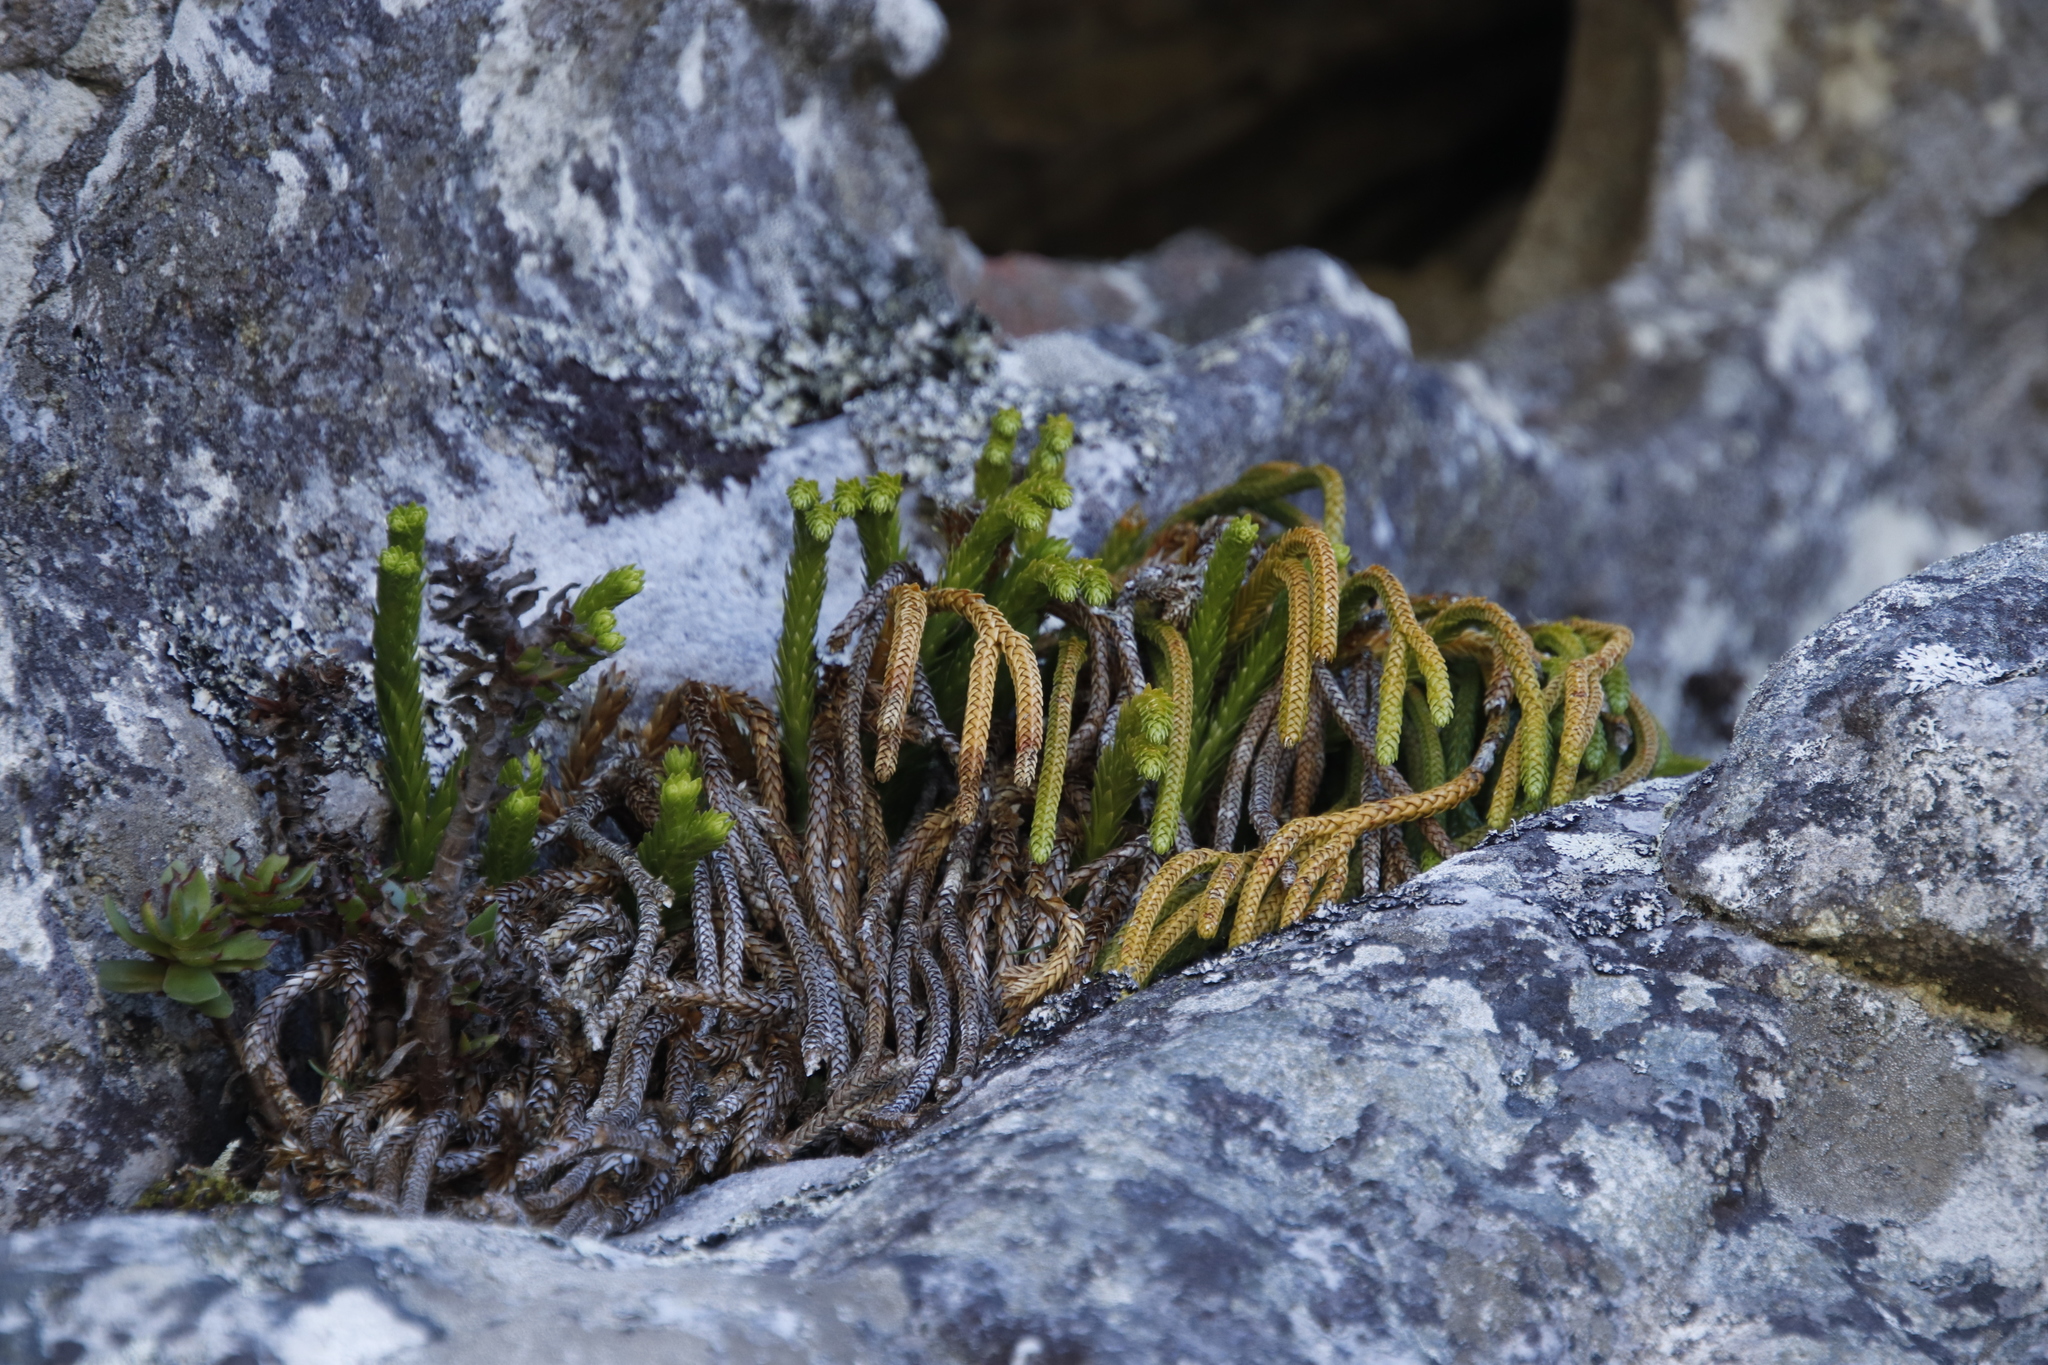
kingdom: Plantae
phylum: Tracheophyta
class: Lycopodiopsida
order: Lycopodiales
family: Lycopodiaceae
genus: Phlegmariurus
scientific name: Phlegmariurus gnidioides
